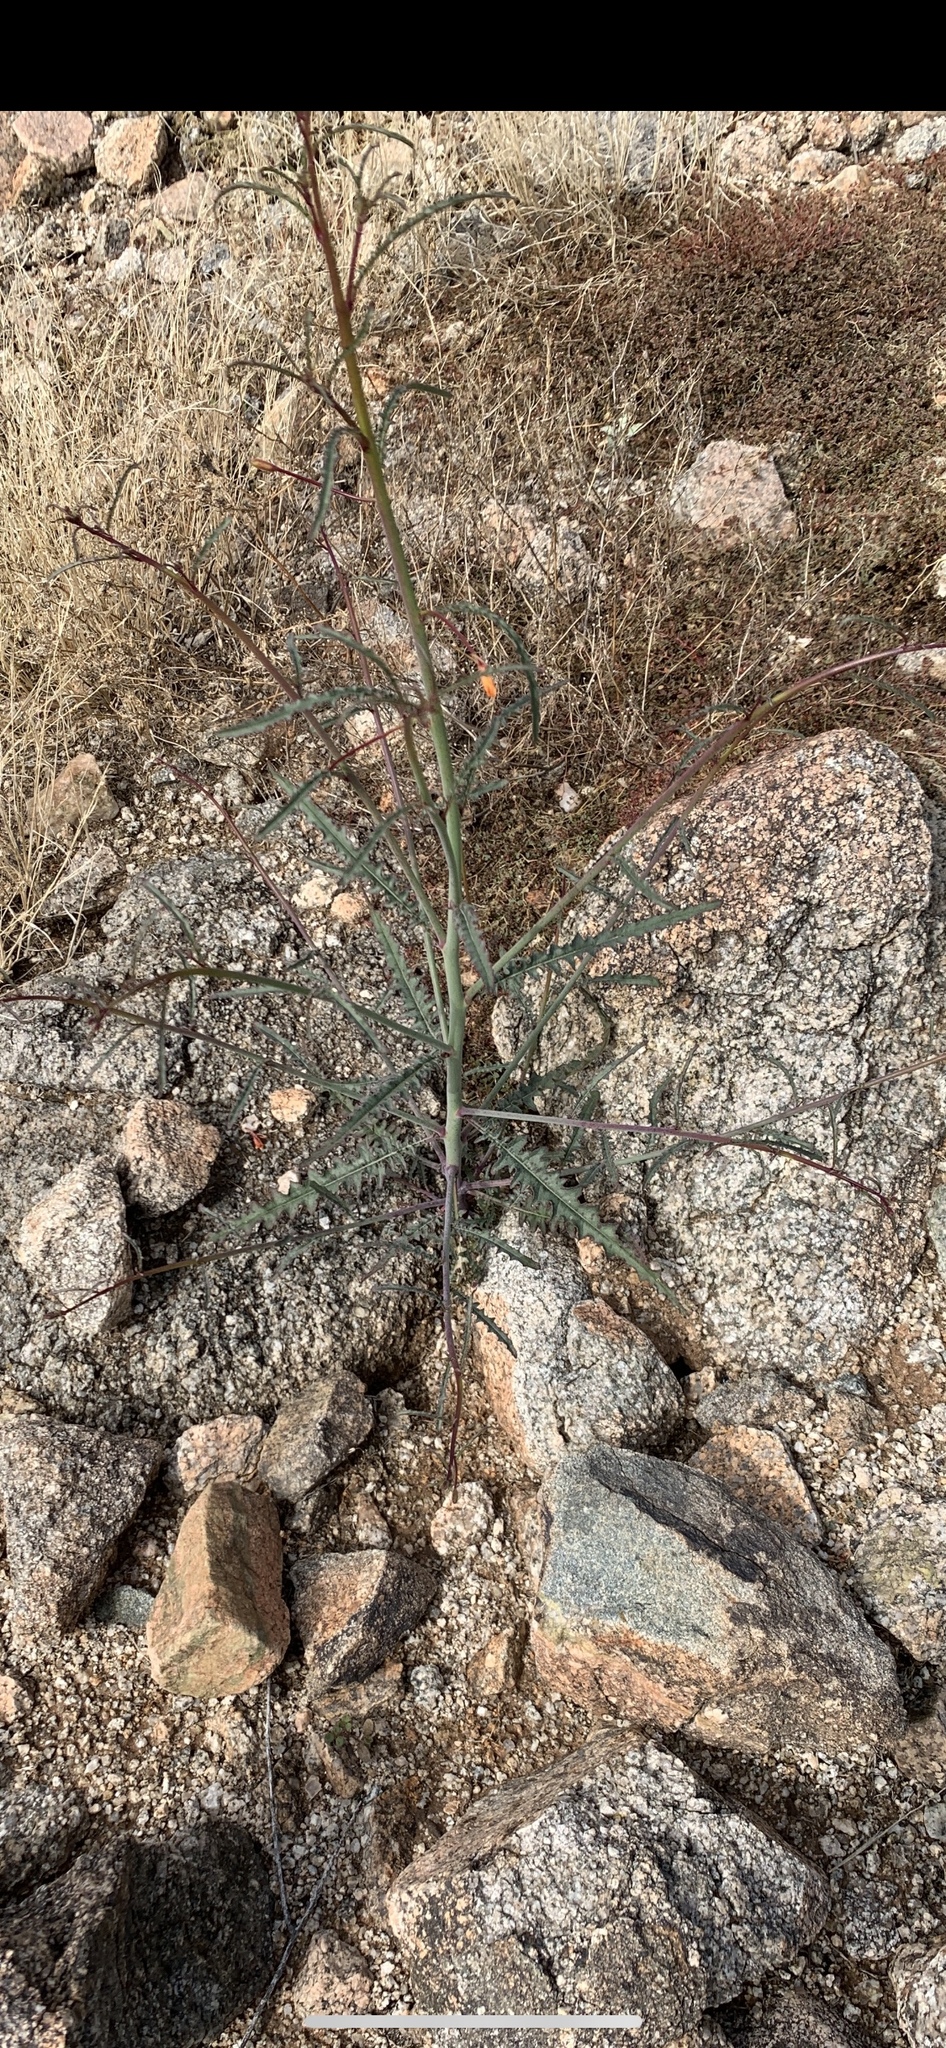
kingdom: Plantae
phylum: Tracheophyta
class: Magnoliopsida
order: Myrtales
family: Onagraceae
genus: Eulobus
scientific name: Eulobus californicus
